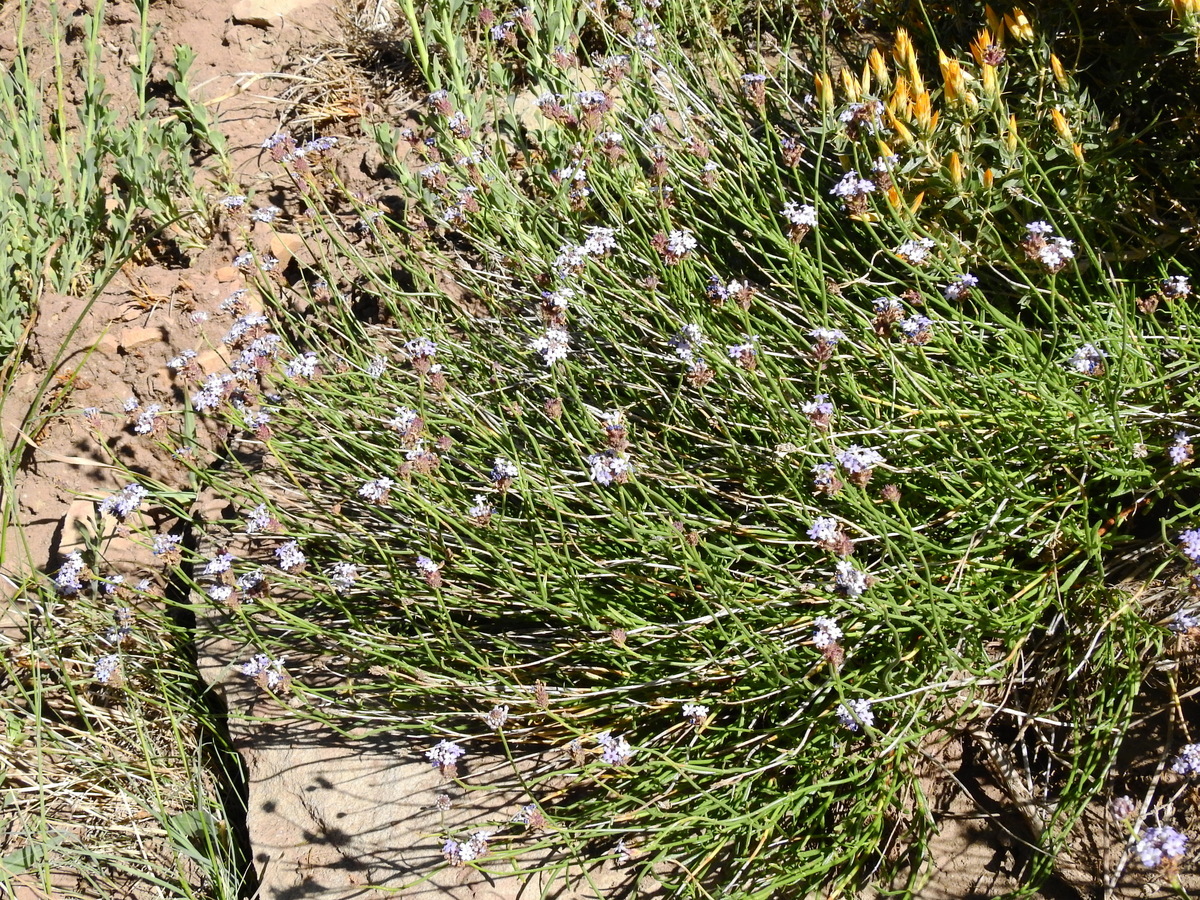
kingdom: Plantae
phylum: Tracheophyta
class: Magnoliopsida
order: Lamiales
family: Verbenaceae
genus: Junellia
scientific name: Junellia spathulata
